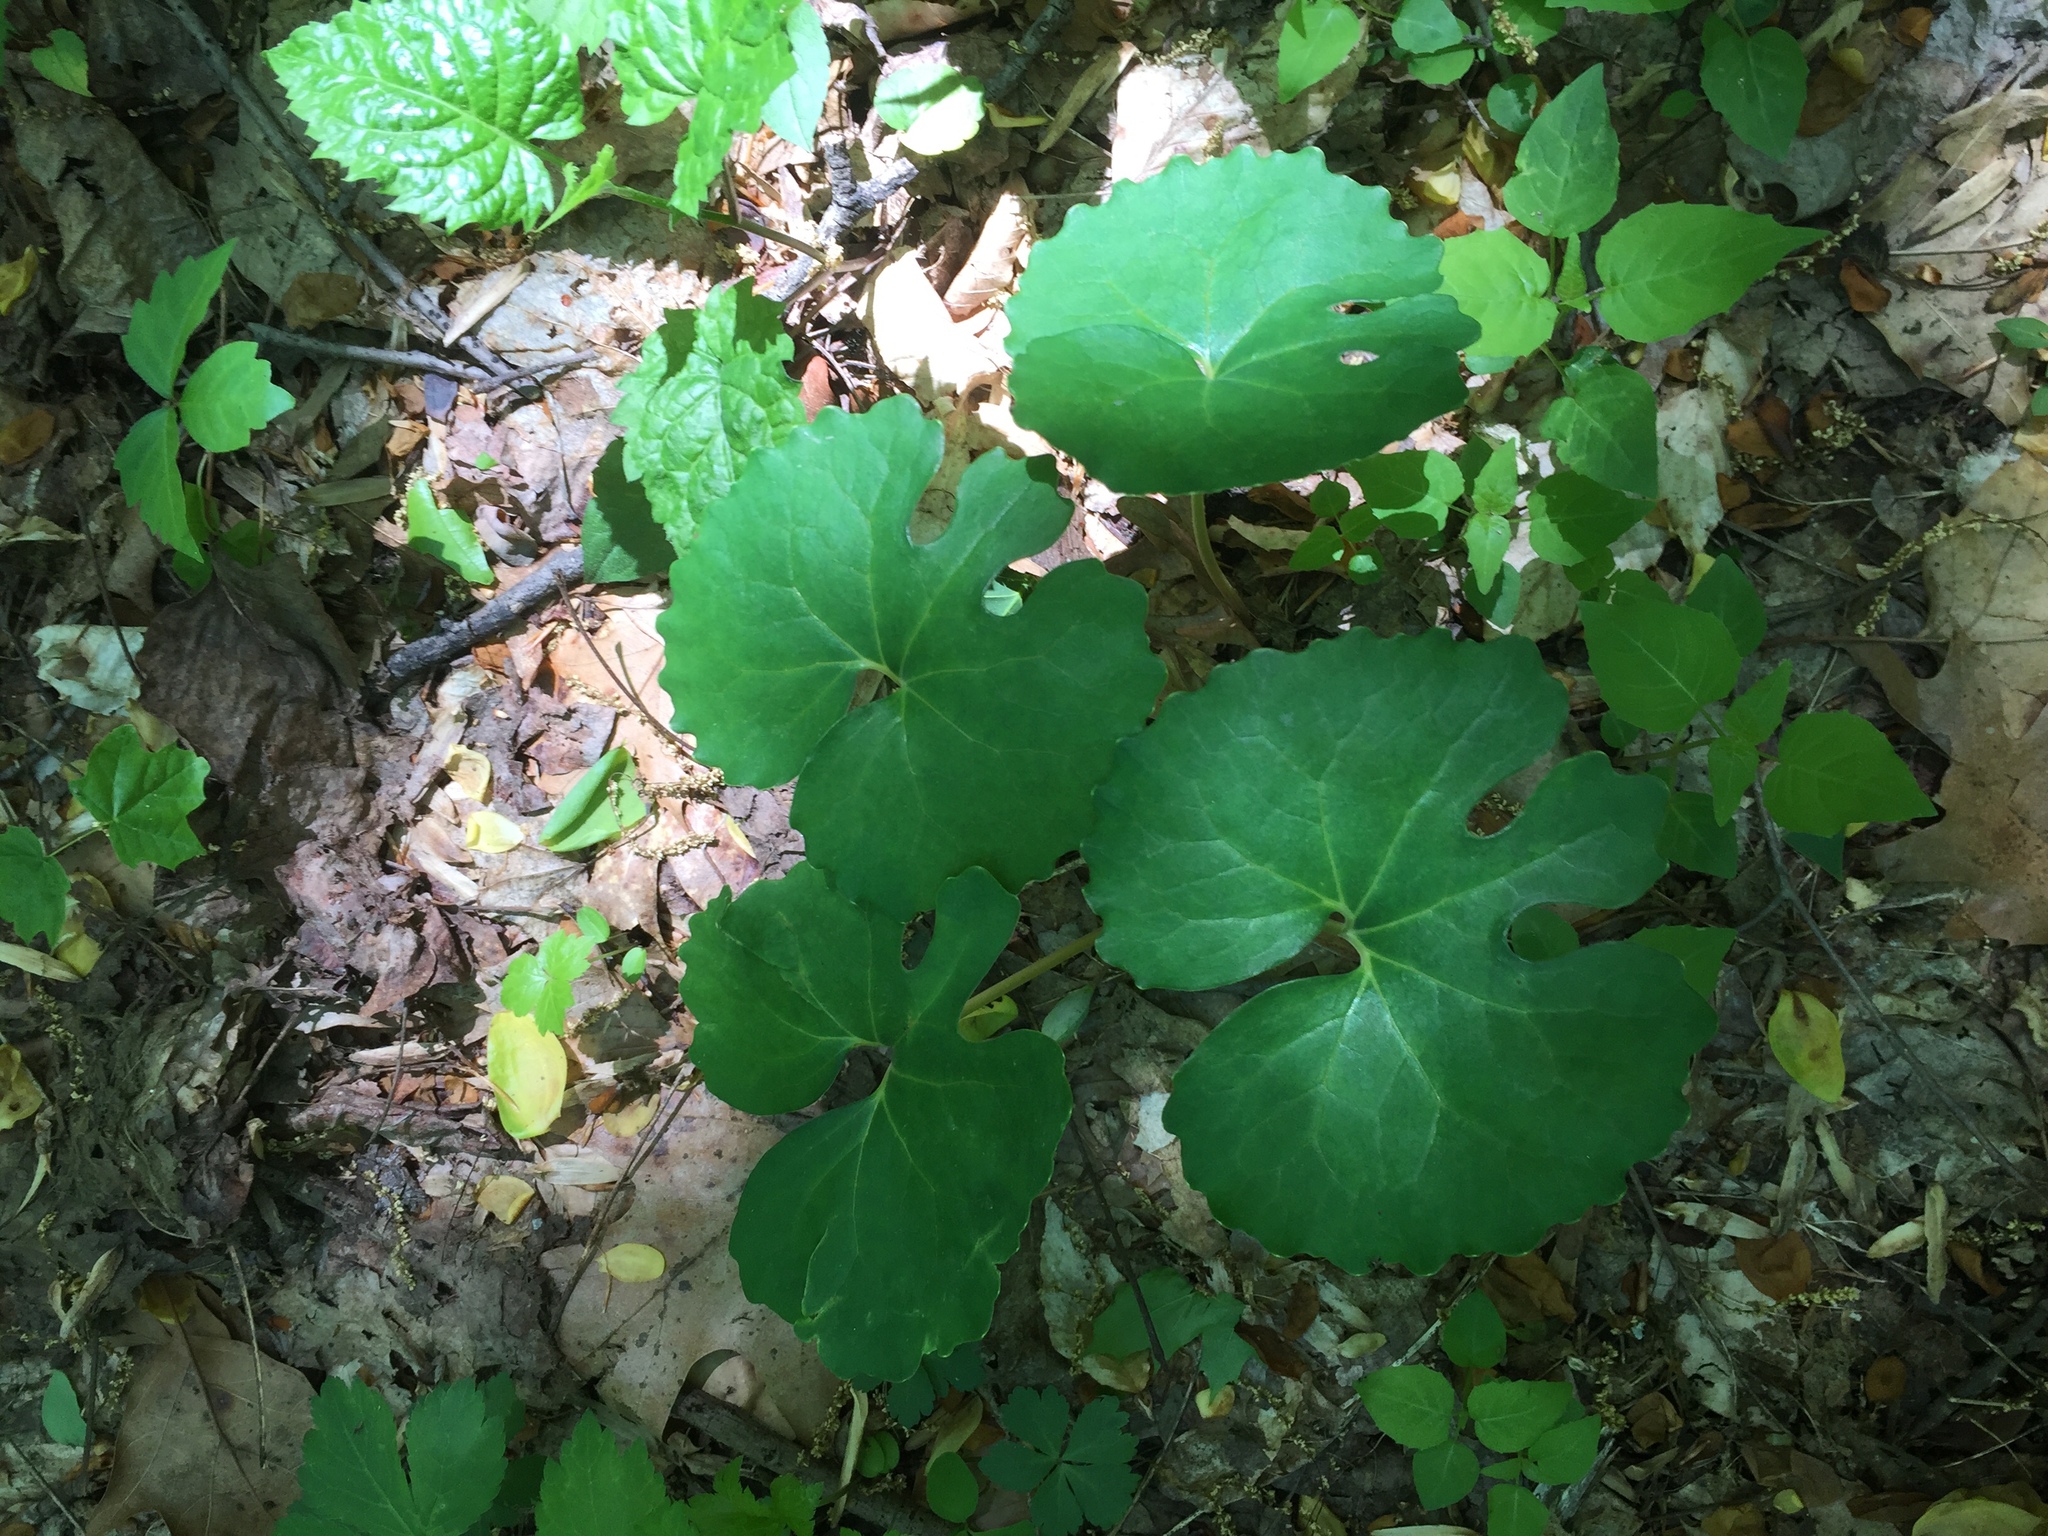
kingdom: Plantae
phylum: Tracheophyta
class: Magnoliopsida
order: Ranunculales
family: Papaveraceae
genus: Sanguinaria
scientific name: Sanguinaria canadensis
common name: Bloodroot
